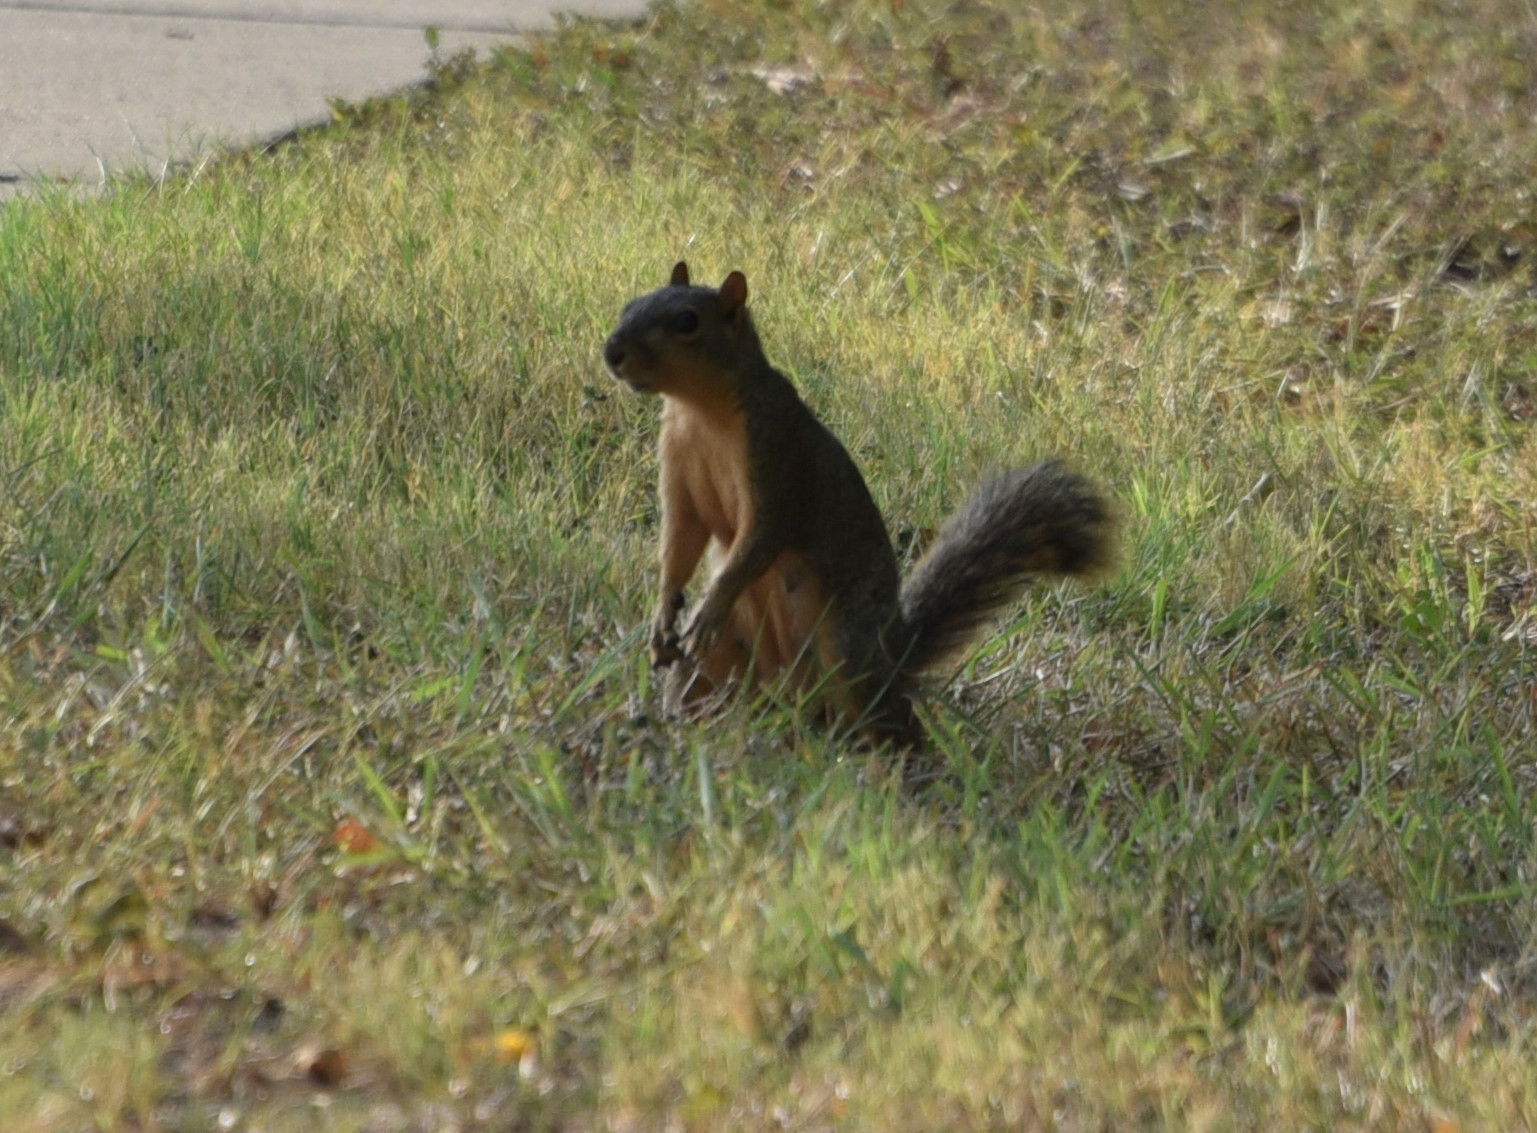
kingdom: Animalia
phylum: Chordata
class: Mammalia
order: Rodentia
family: Sciuridae
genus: Sciurus
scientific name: Sciurus niger
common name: Fox squirrel
